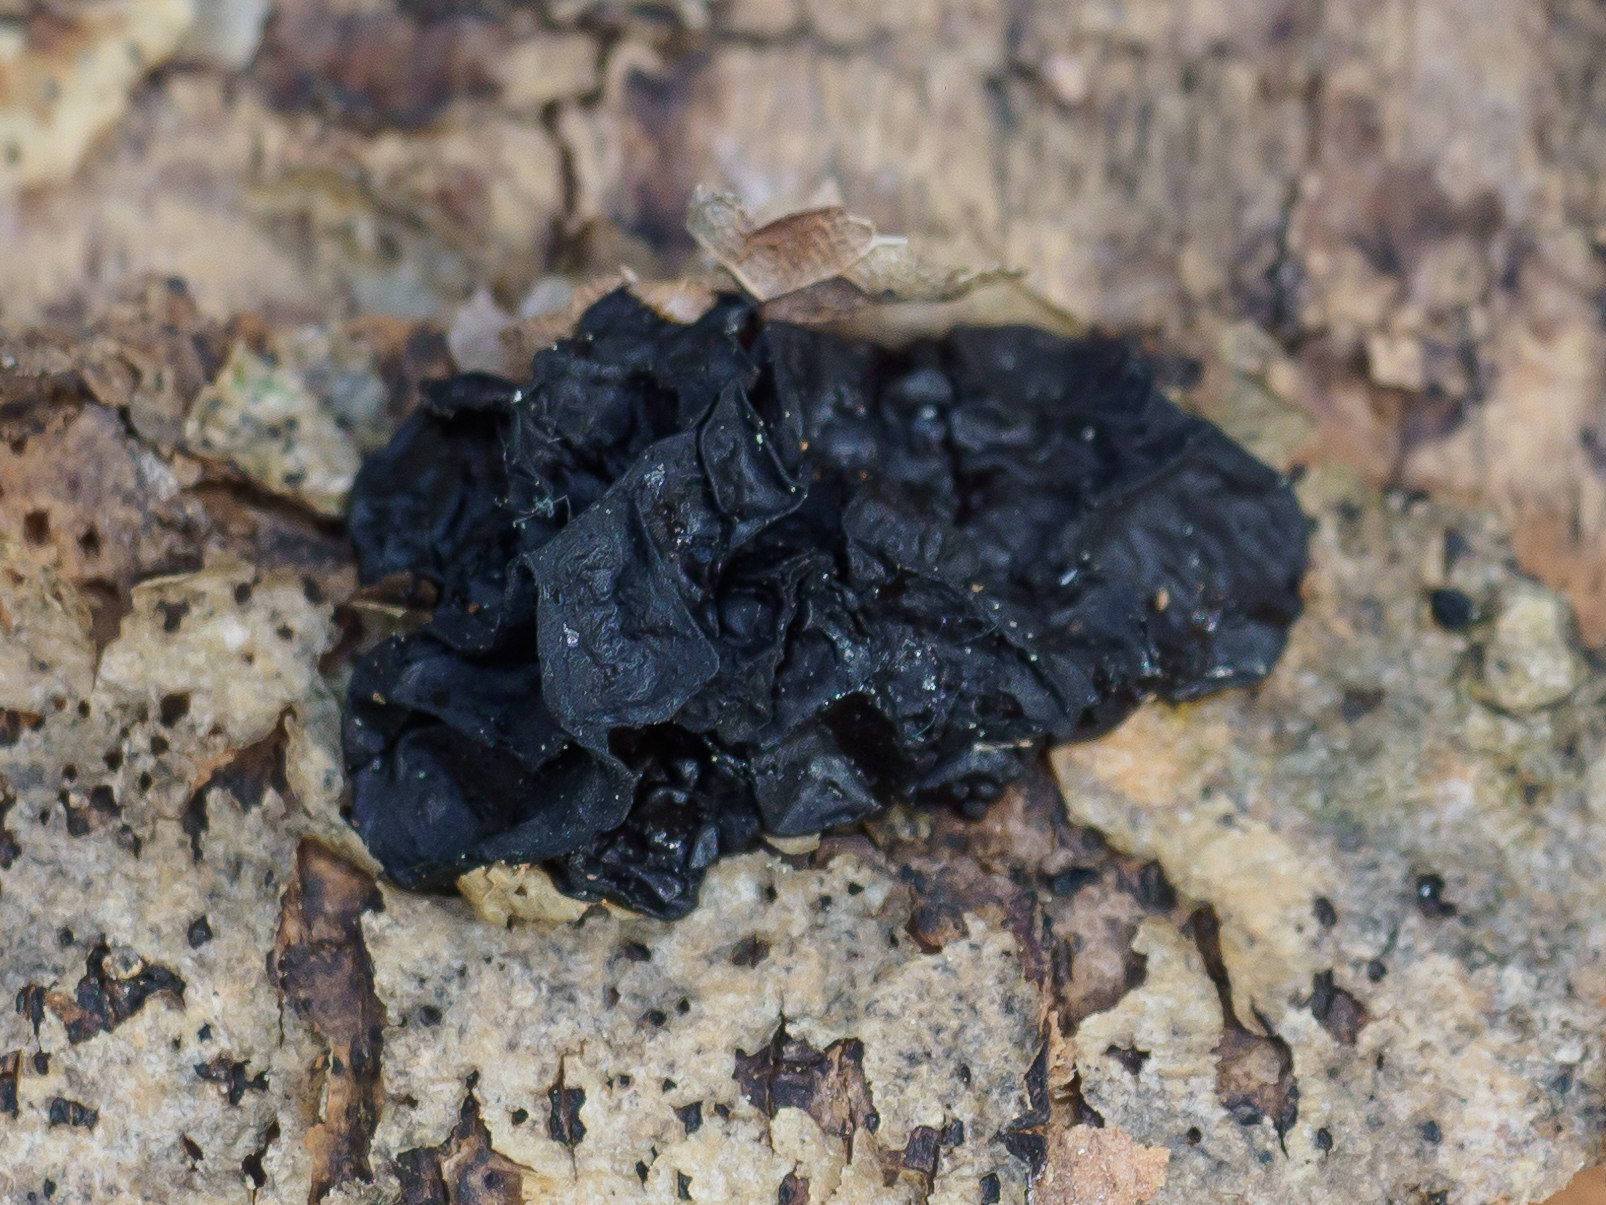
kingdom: Fungi
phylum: Basidiomycota
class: Agaricomycetes
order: Auriculariales
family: Auriculariaceae
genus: Exidia
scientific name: Exidia nigricans
